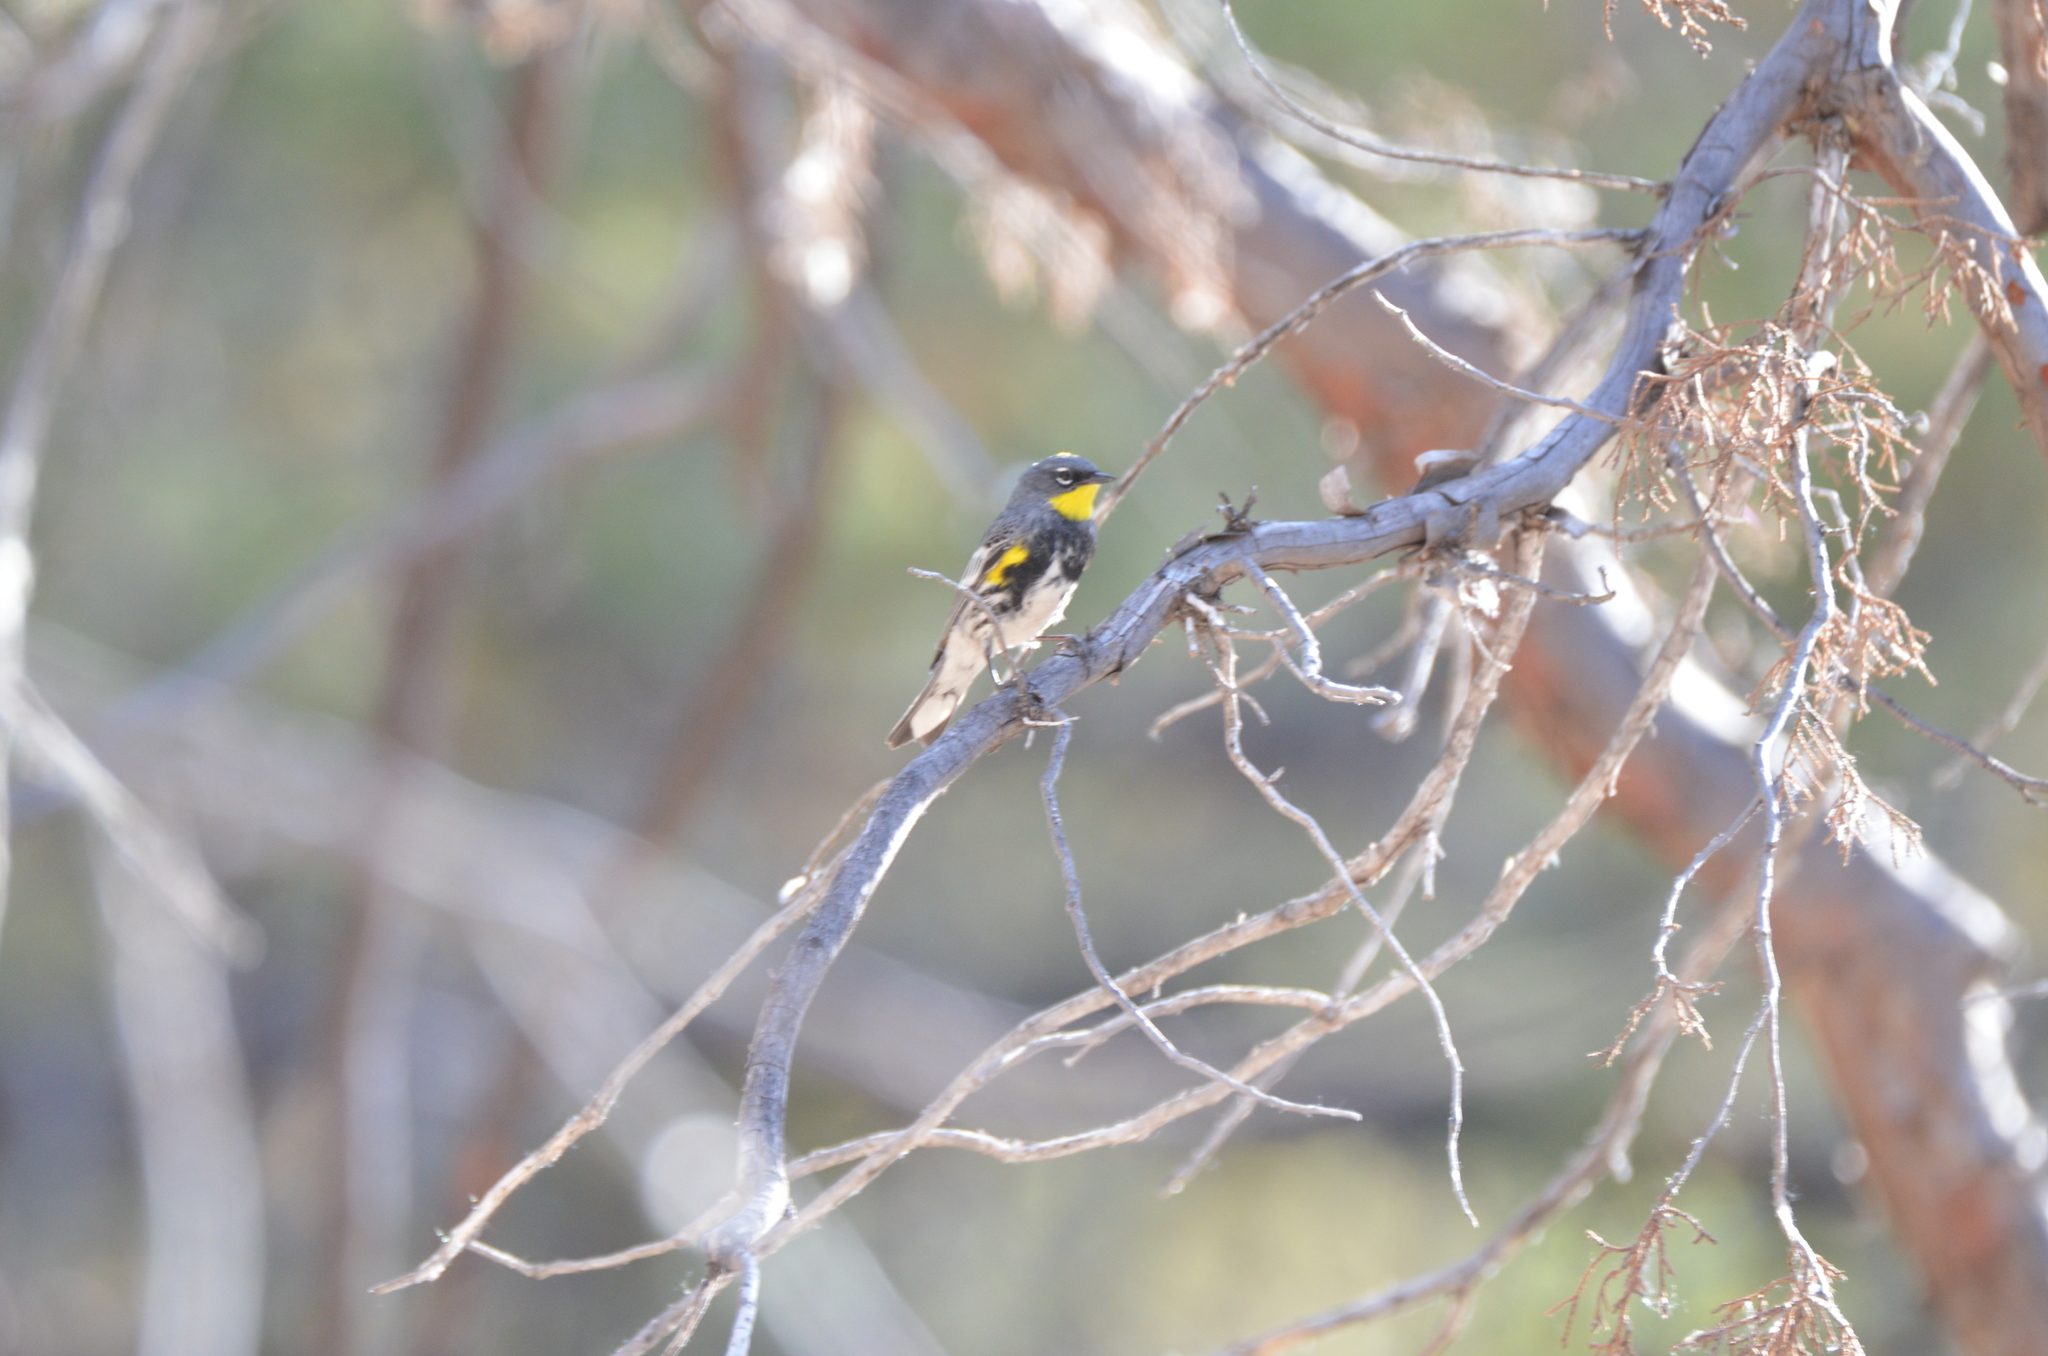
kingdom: Animalia
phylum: Chordata
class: Aves
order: Passeriformes
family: Parulidae
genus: Setophaga
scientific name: Setophaga auduboni
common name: Audubon's warbler
